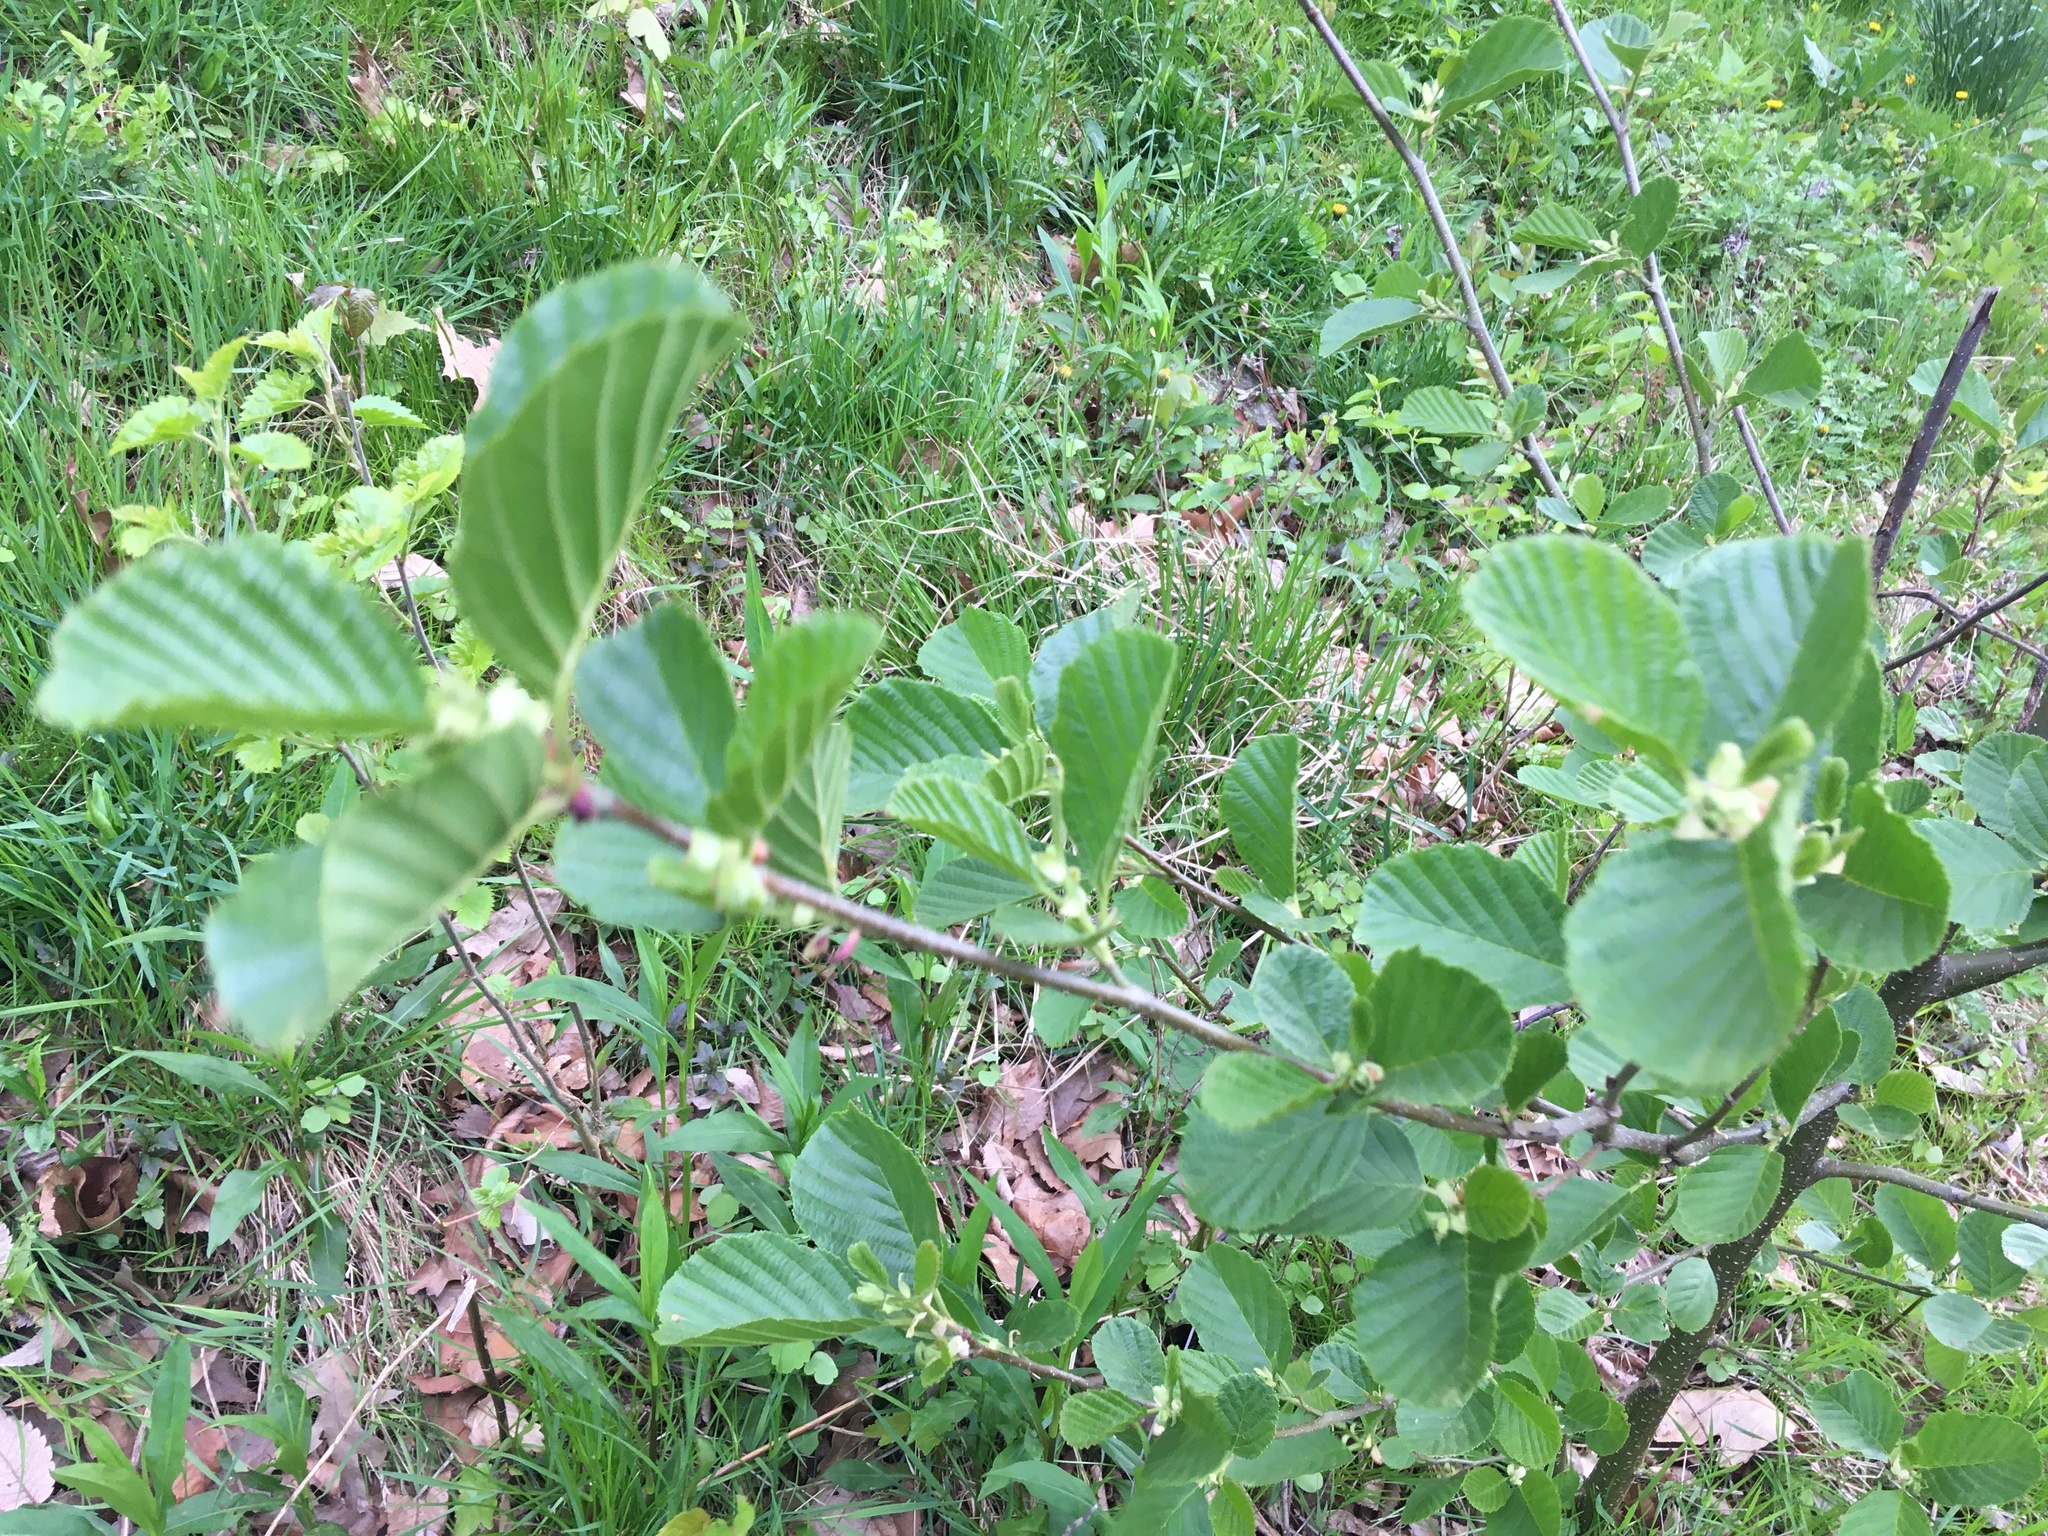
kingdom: Plantae
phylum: Tracheophyta
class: Magnoliopsida
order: Fagales
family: Betulaceae
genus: Alnus
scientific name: Alnus glutinosa
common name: Black alder
